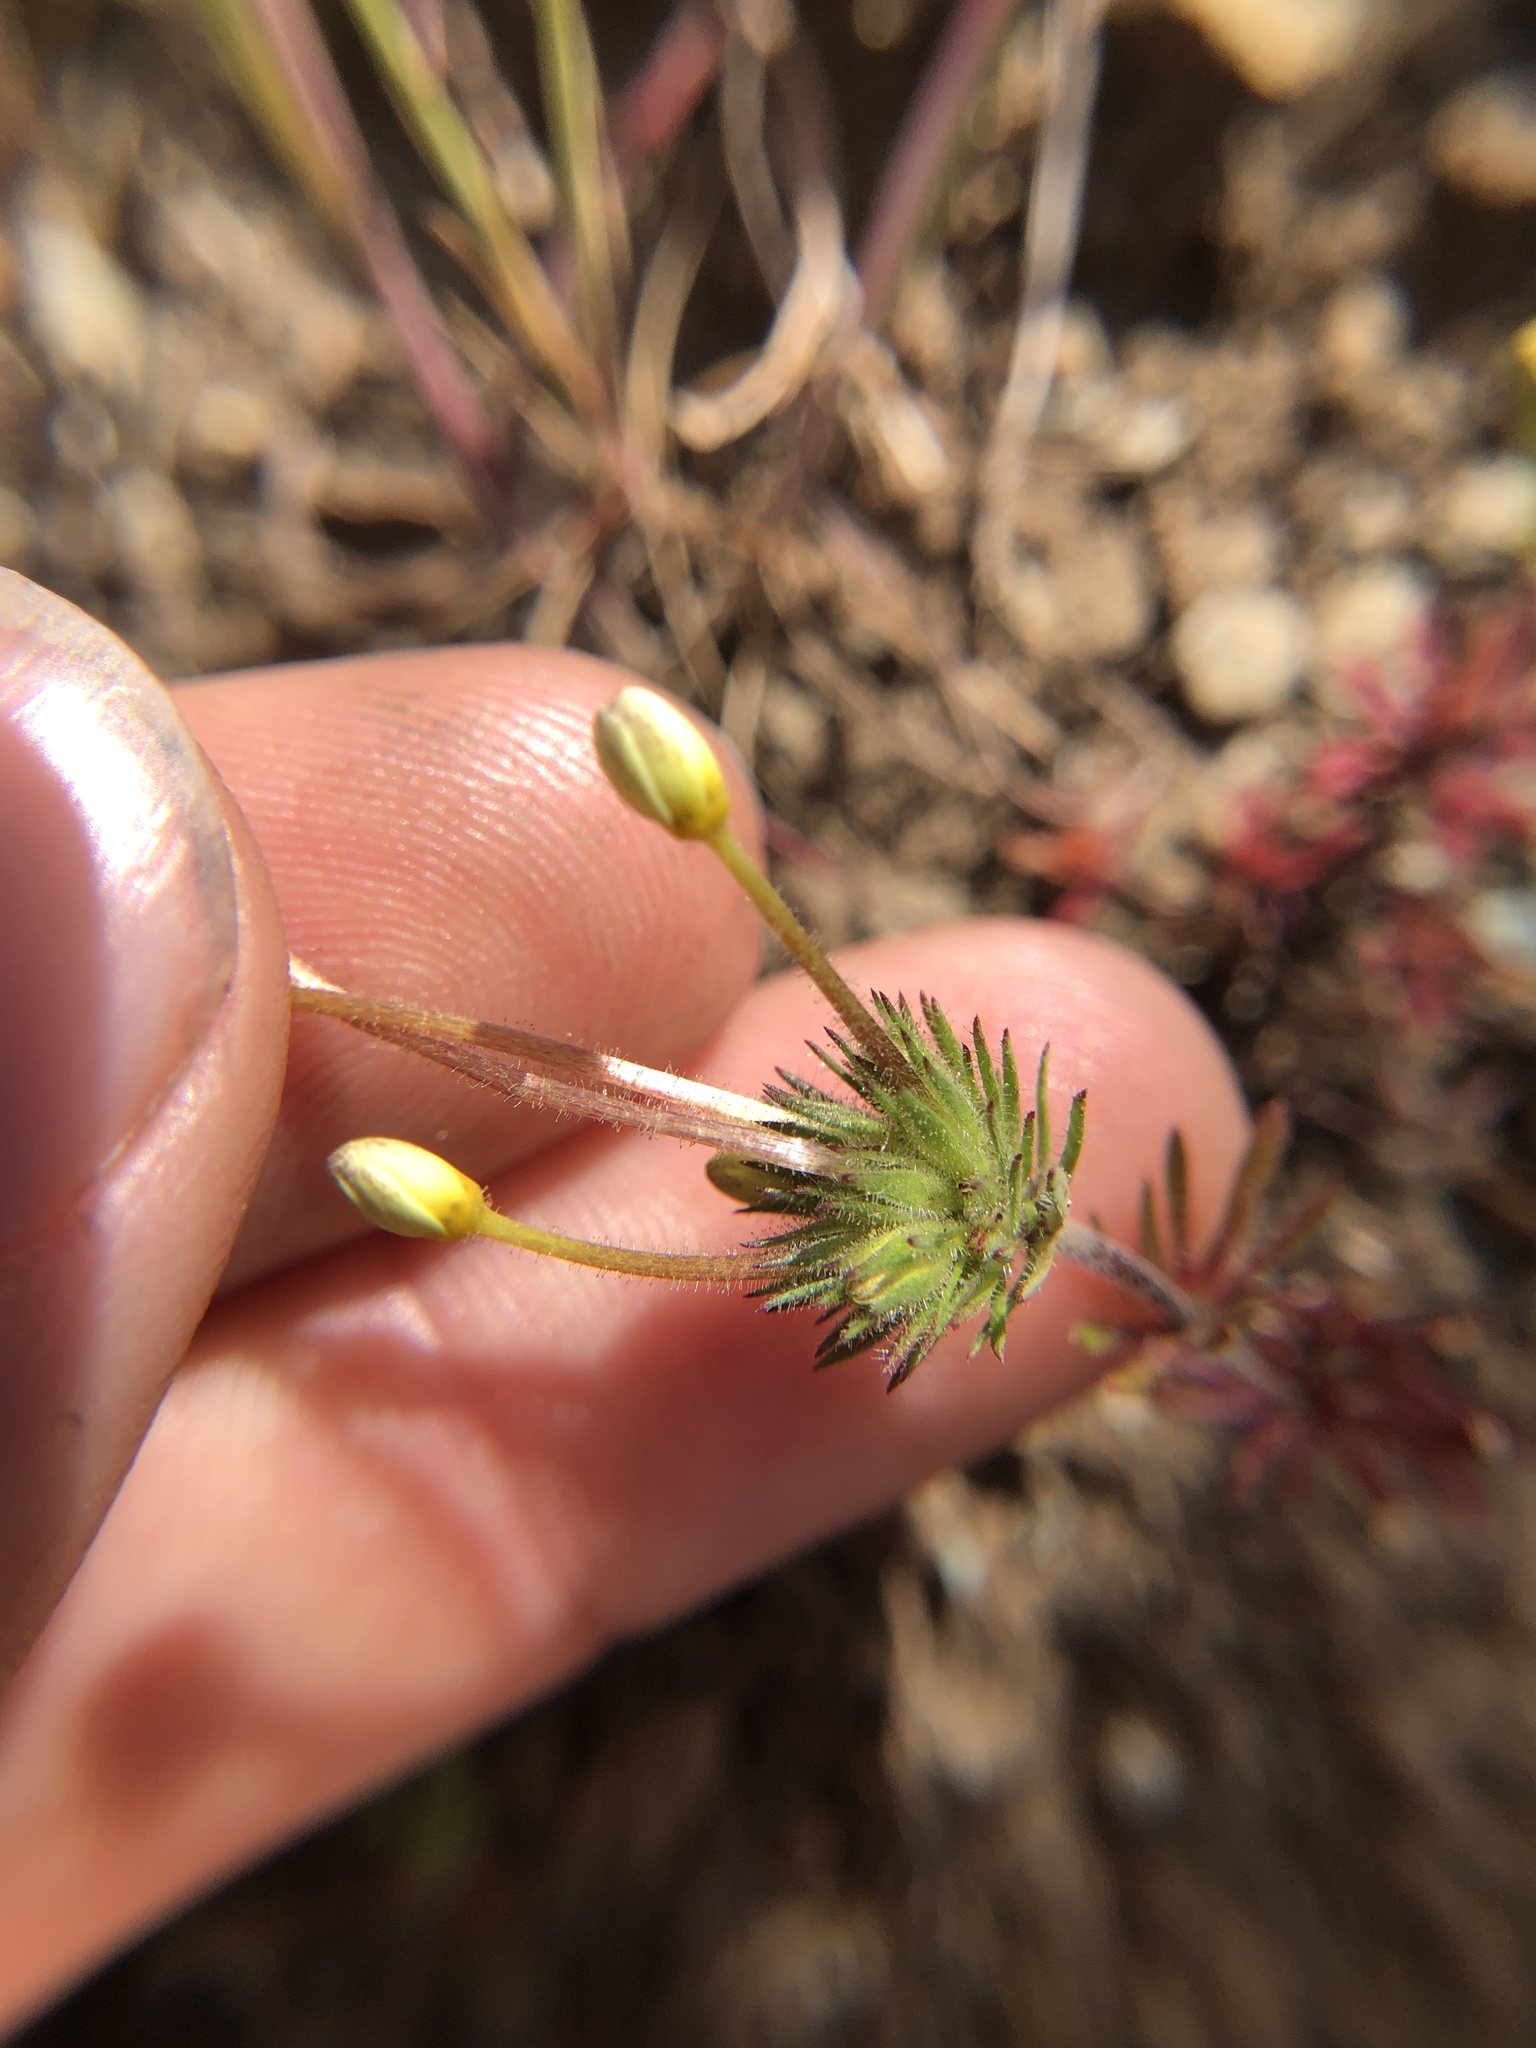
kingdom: Plantae
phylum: Tracheophyta
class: Magnoliopsida
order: Ericales
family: Polemoniaceae
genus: Leptosiphon
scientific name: Leptosiphon parviflorus
